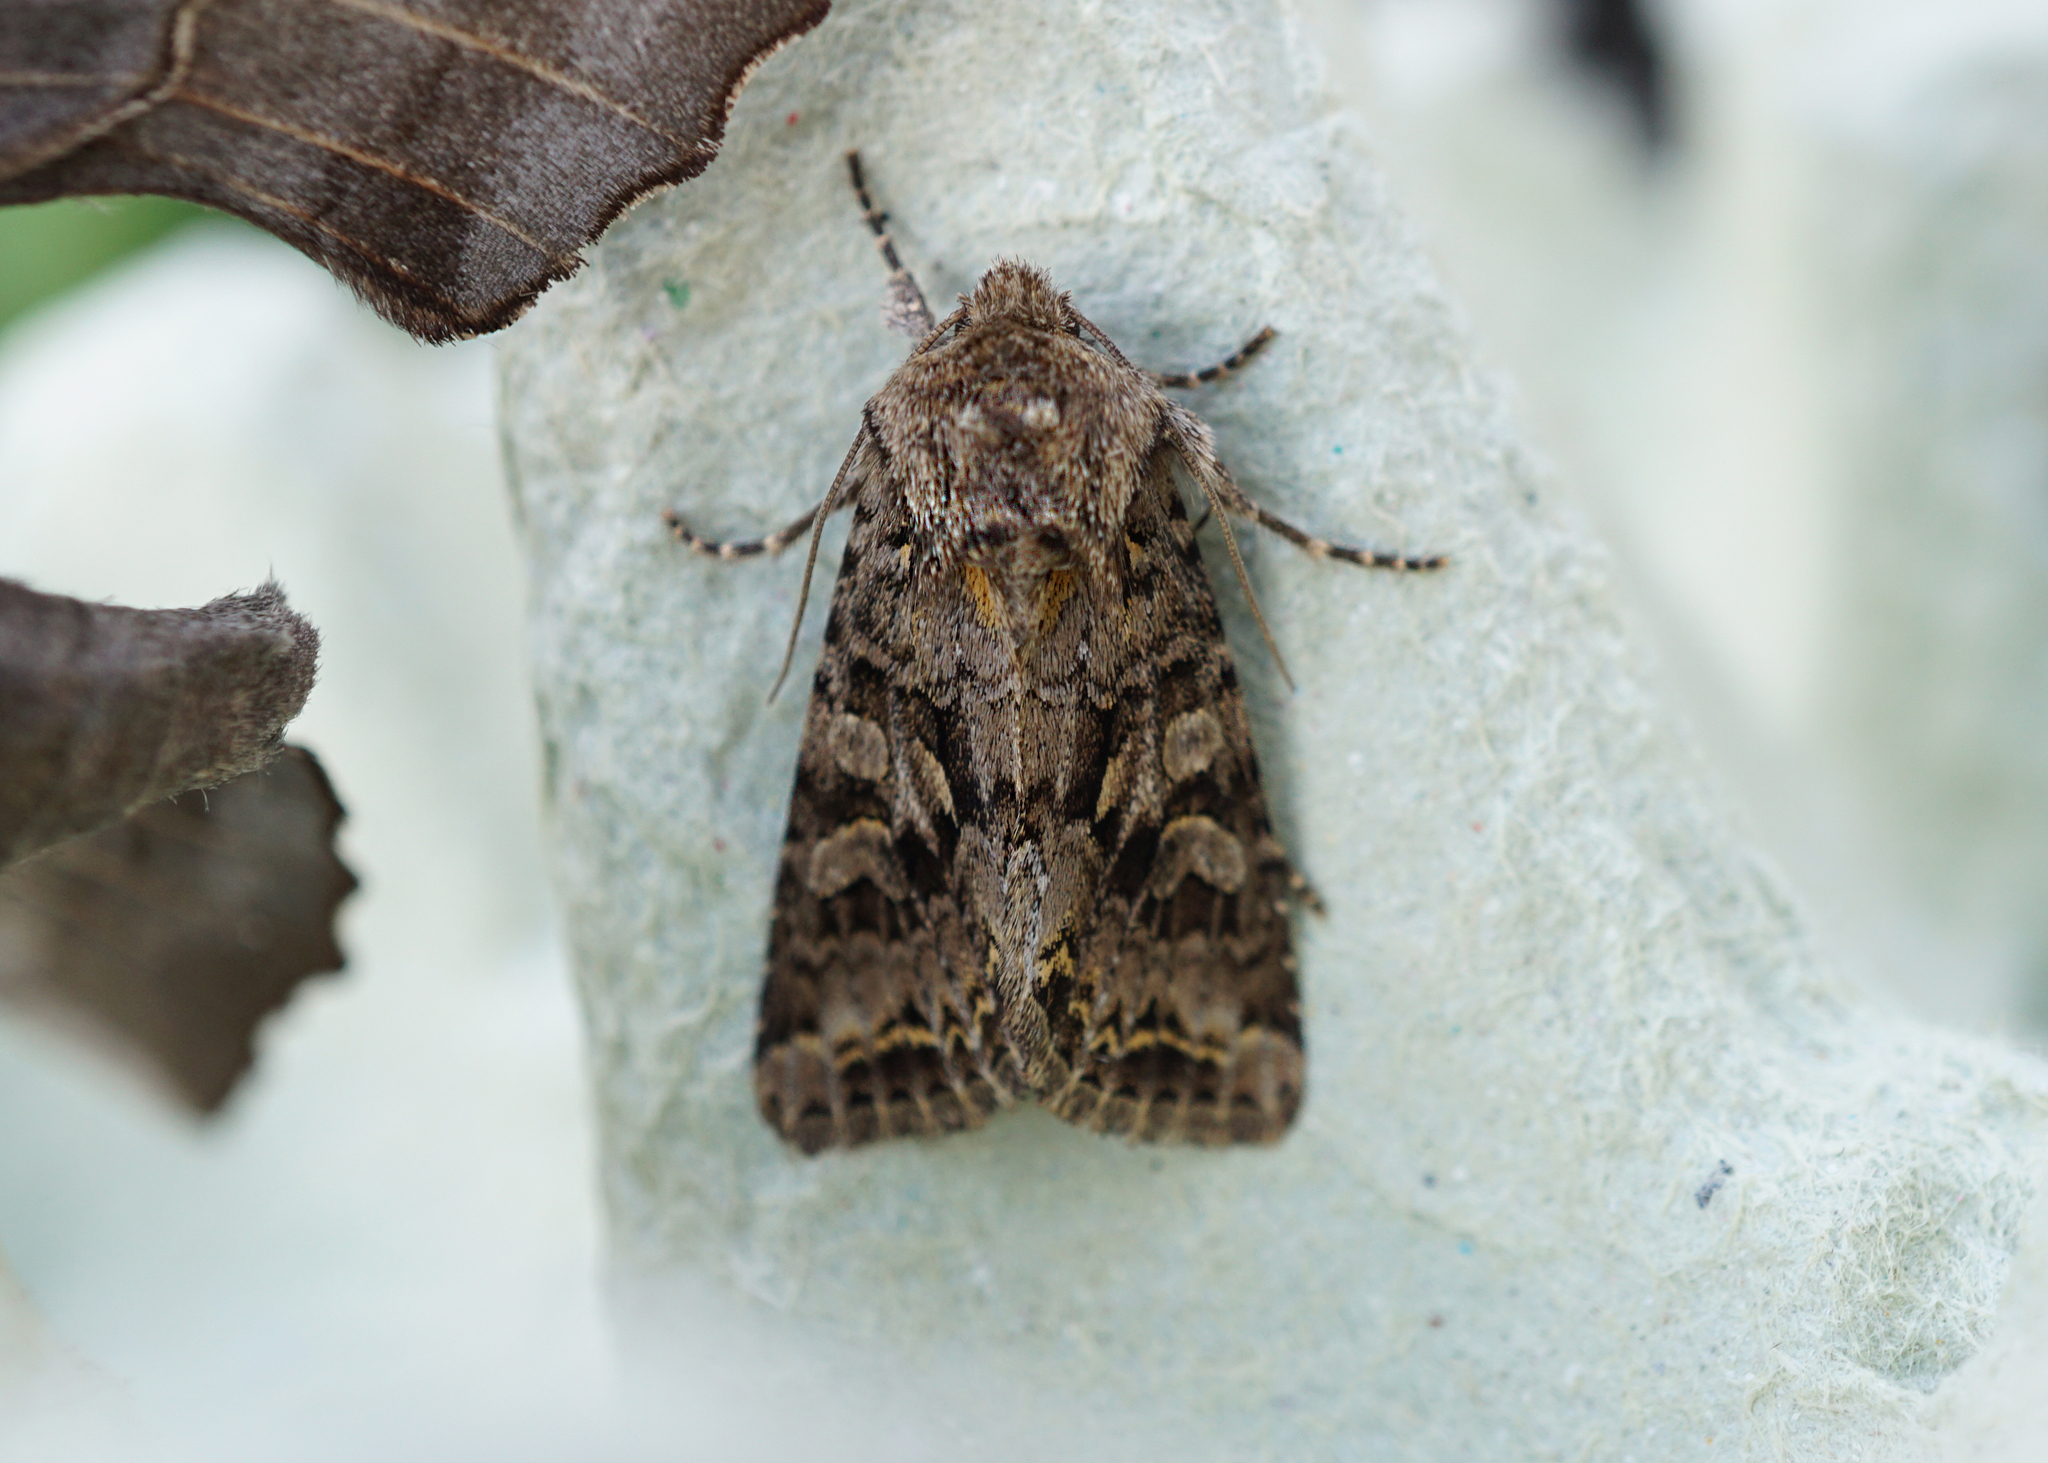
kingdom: Animalia
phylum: Arthropoda
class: Insecta
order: Lepidoptera
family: Noctuidae
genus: Hada
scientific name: Hada plebeja
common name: Shears
